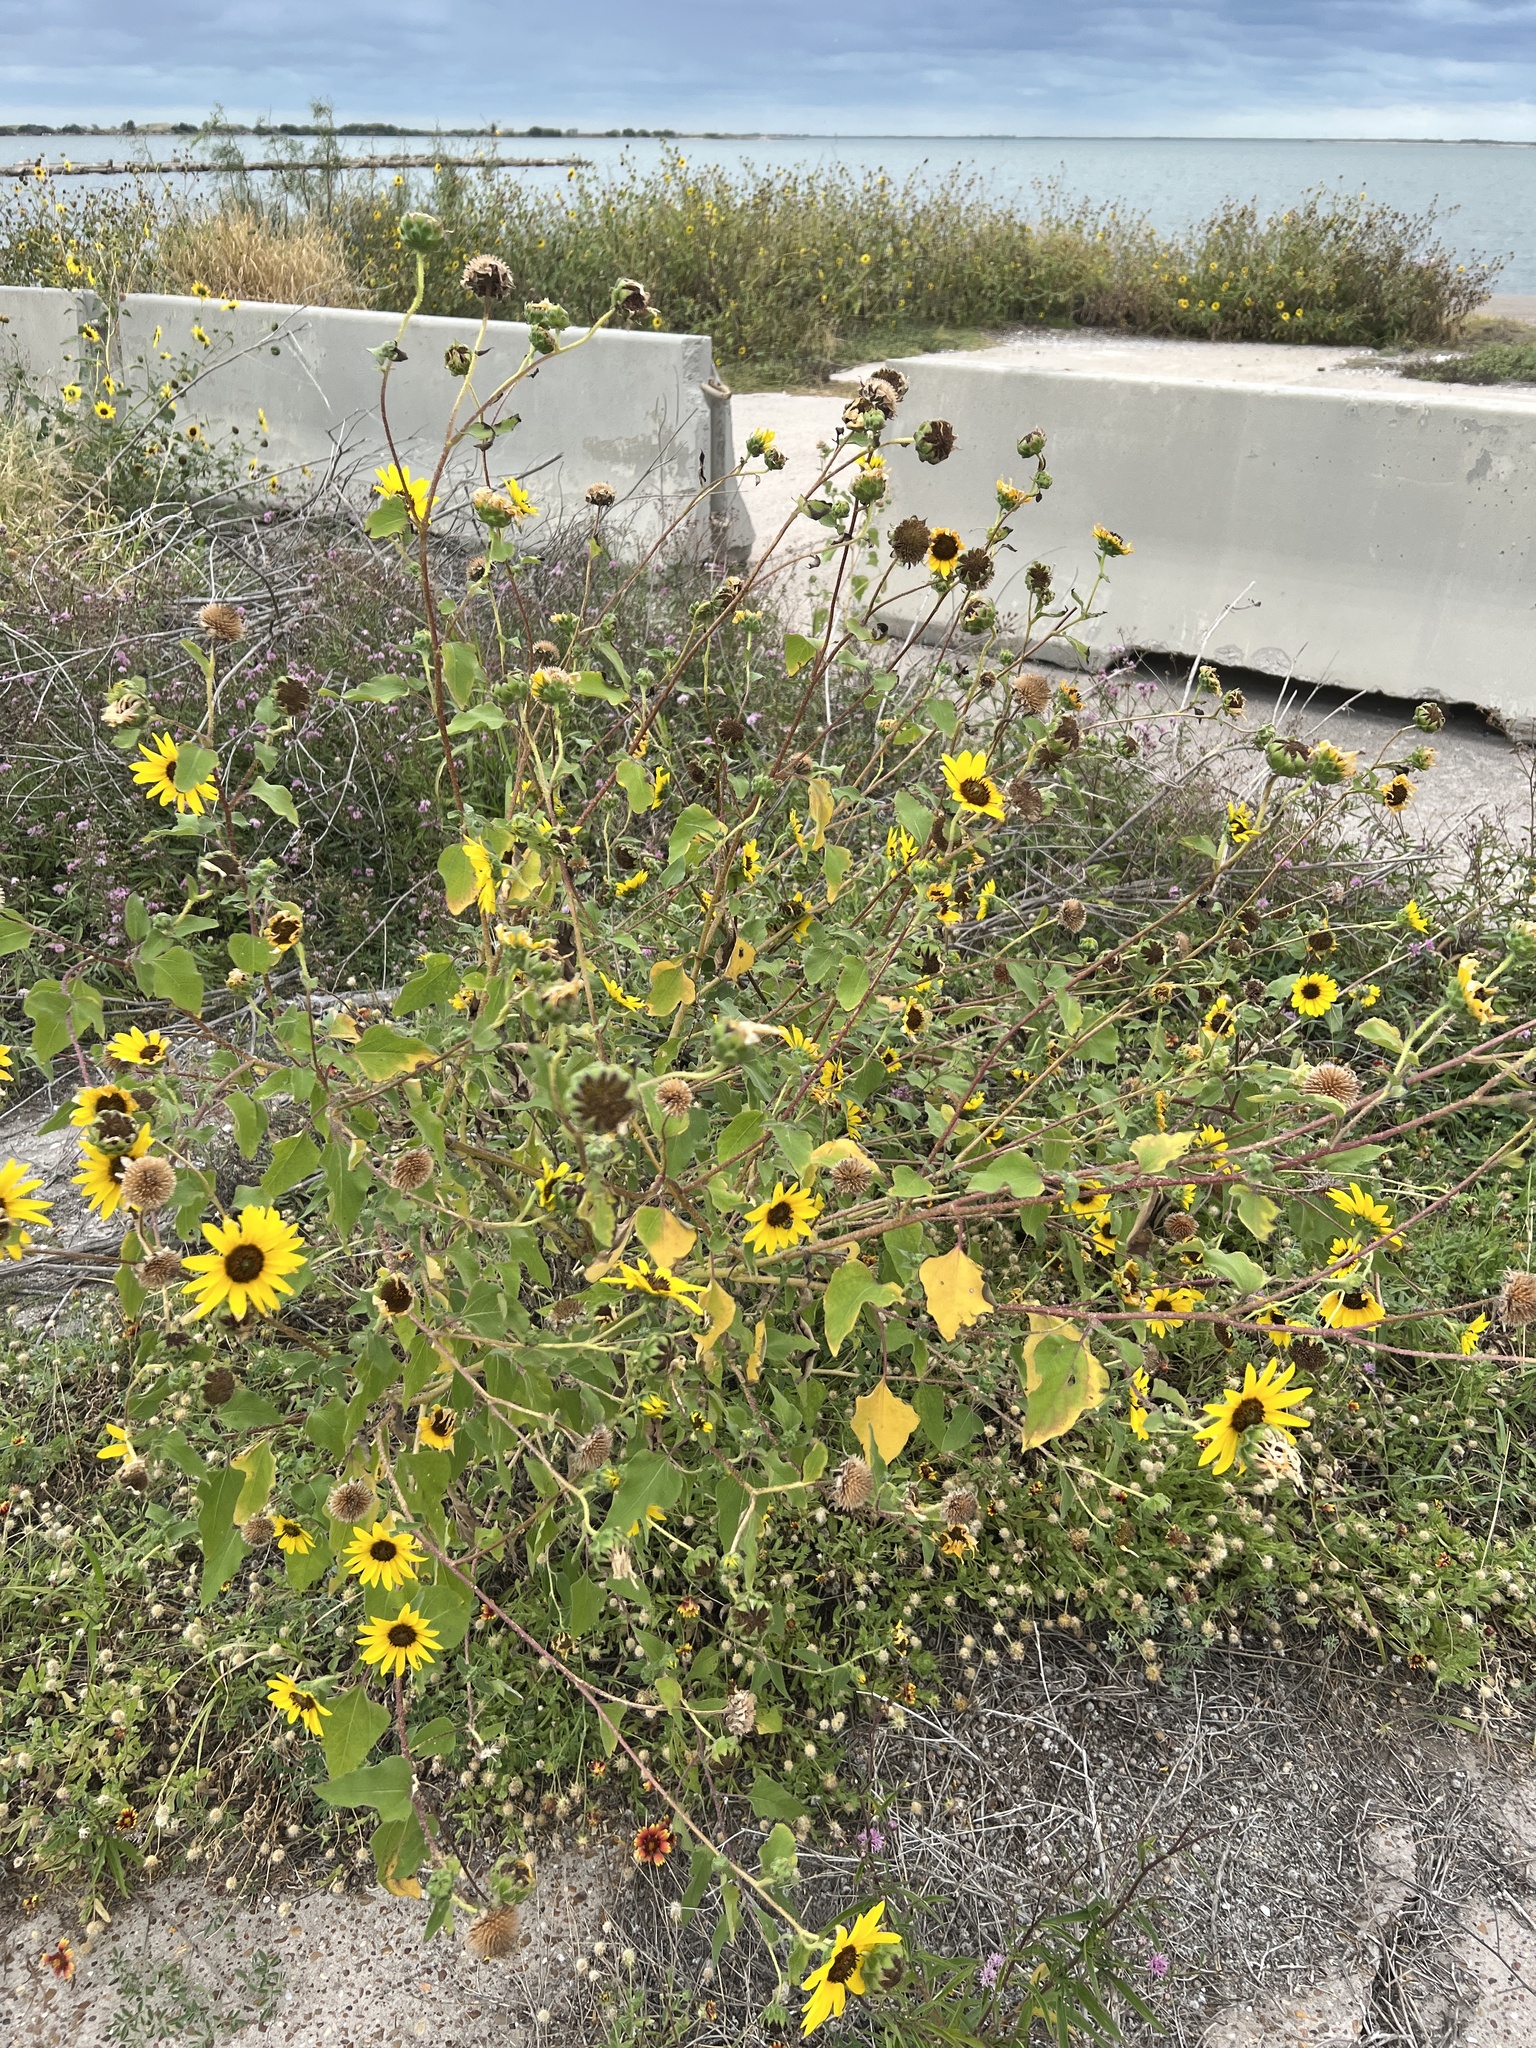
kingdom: Plantae
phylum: Tracheophyta
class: Magnoliopsida
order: Asterales
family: Asteraceae
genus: Helianthus
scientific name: Helianthus praecox
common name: Texas sunflower
